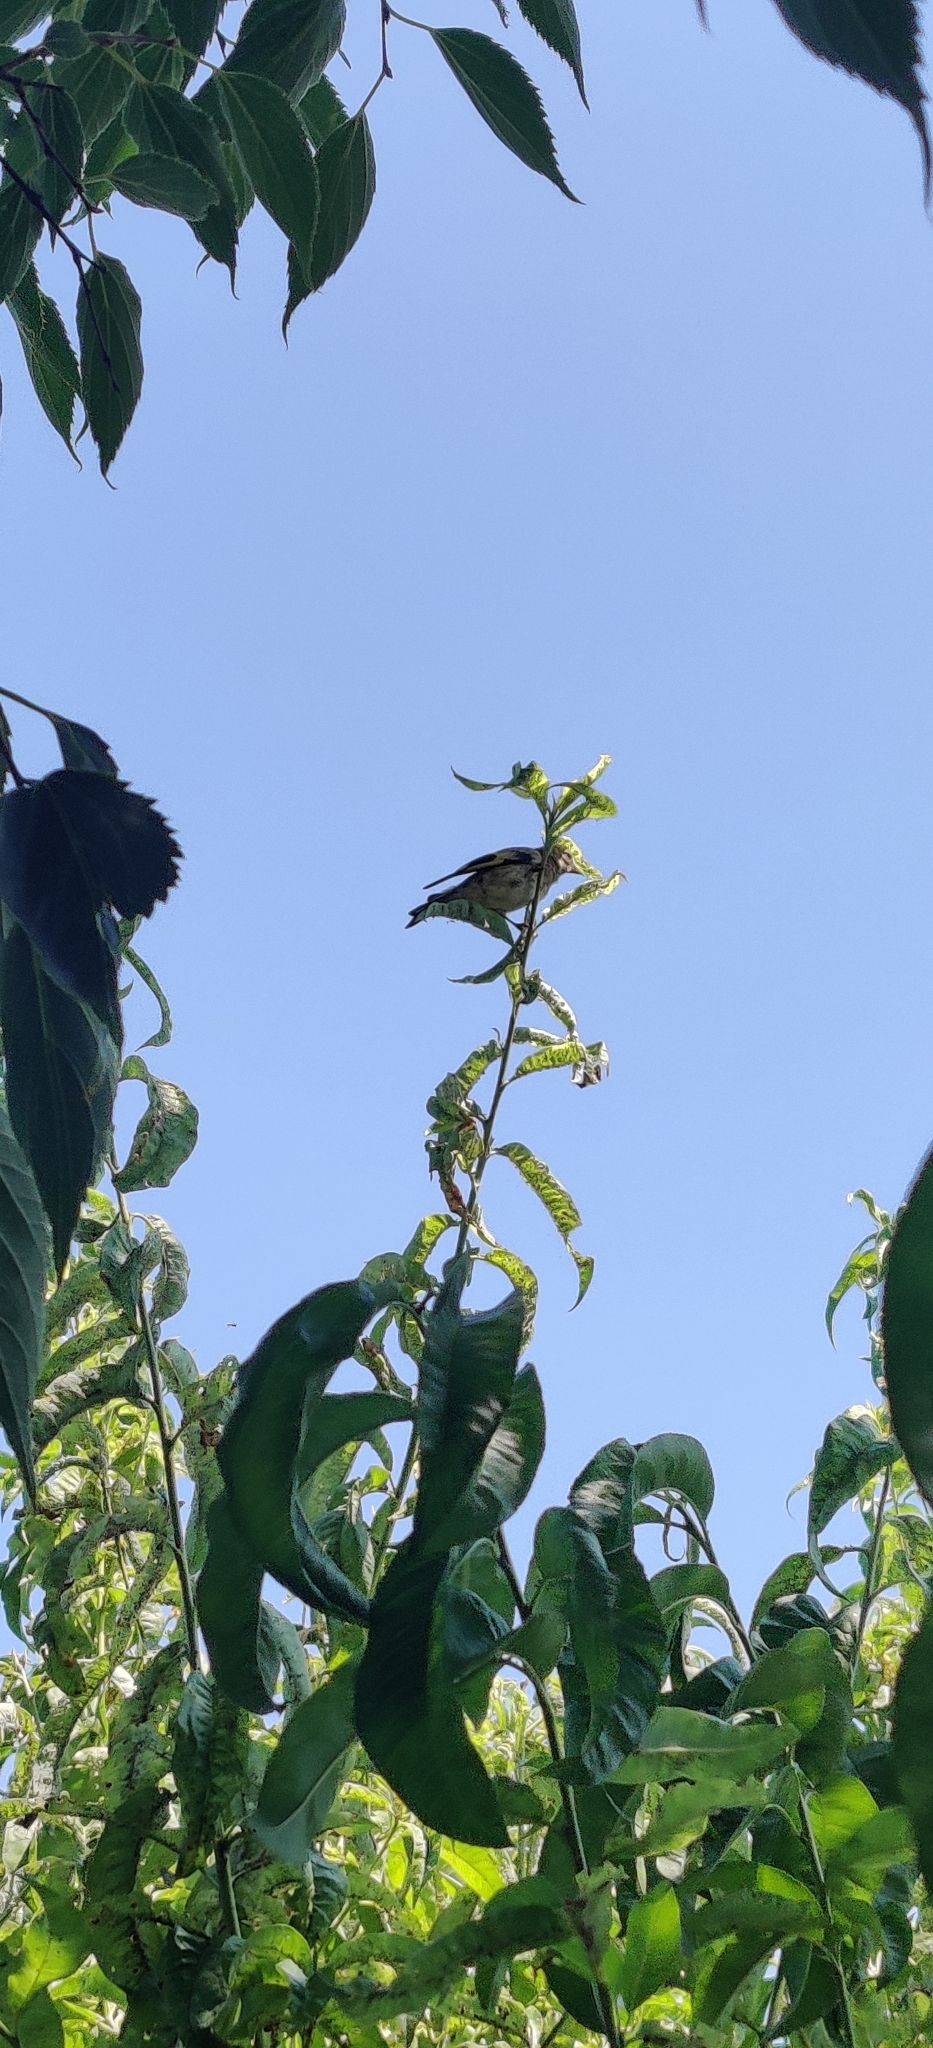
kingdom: Animalia
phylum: Chordata
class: Aves
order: Passeriformes
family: Fringillidae
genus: Carduelis
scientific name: Carduelis carduelis
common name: European goldfinch
